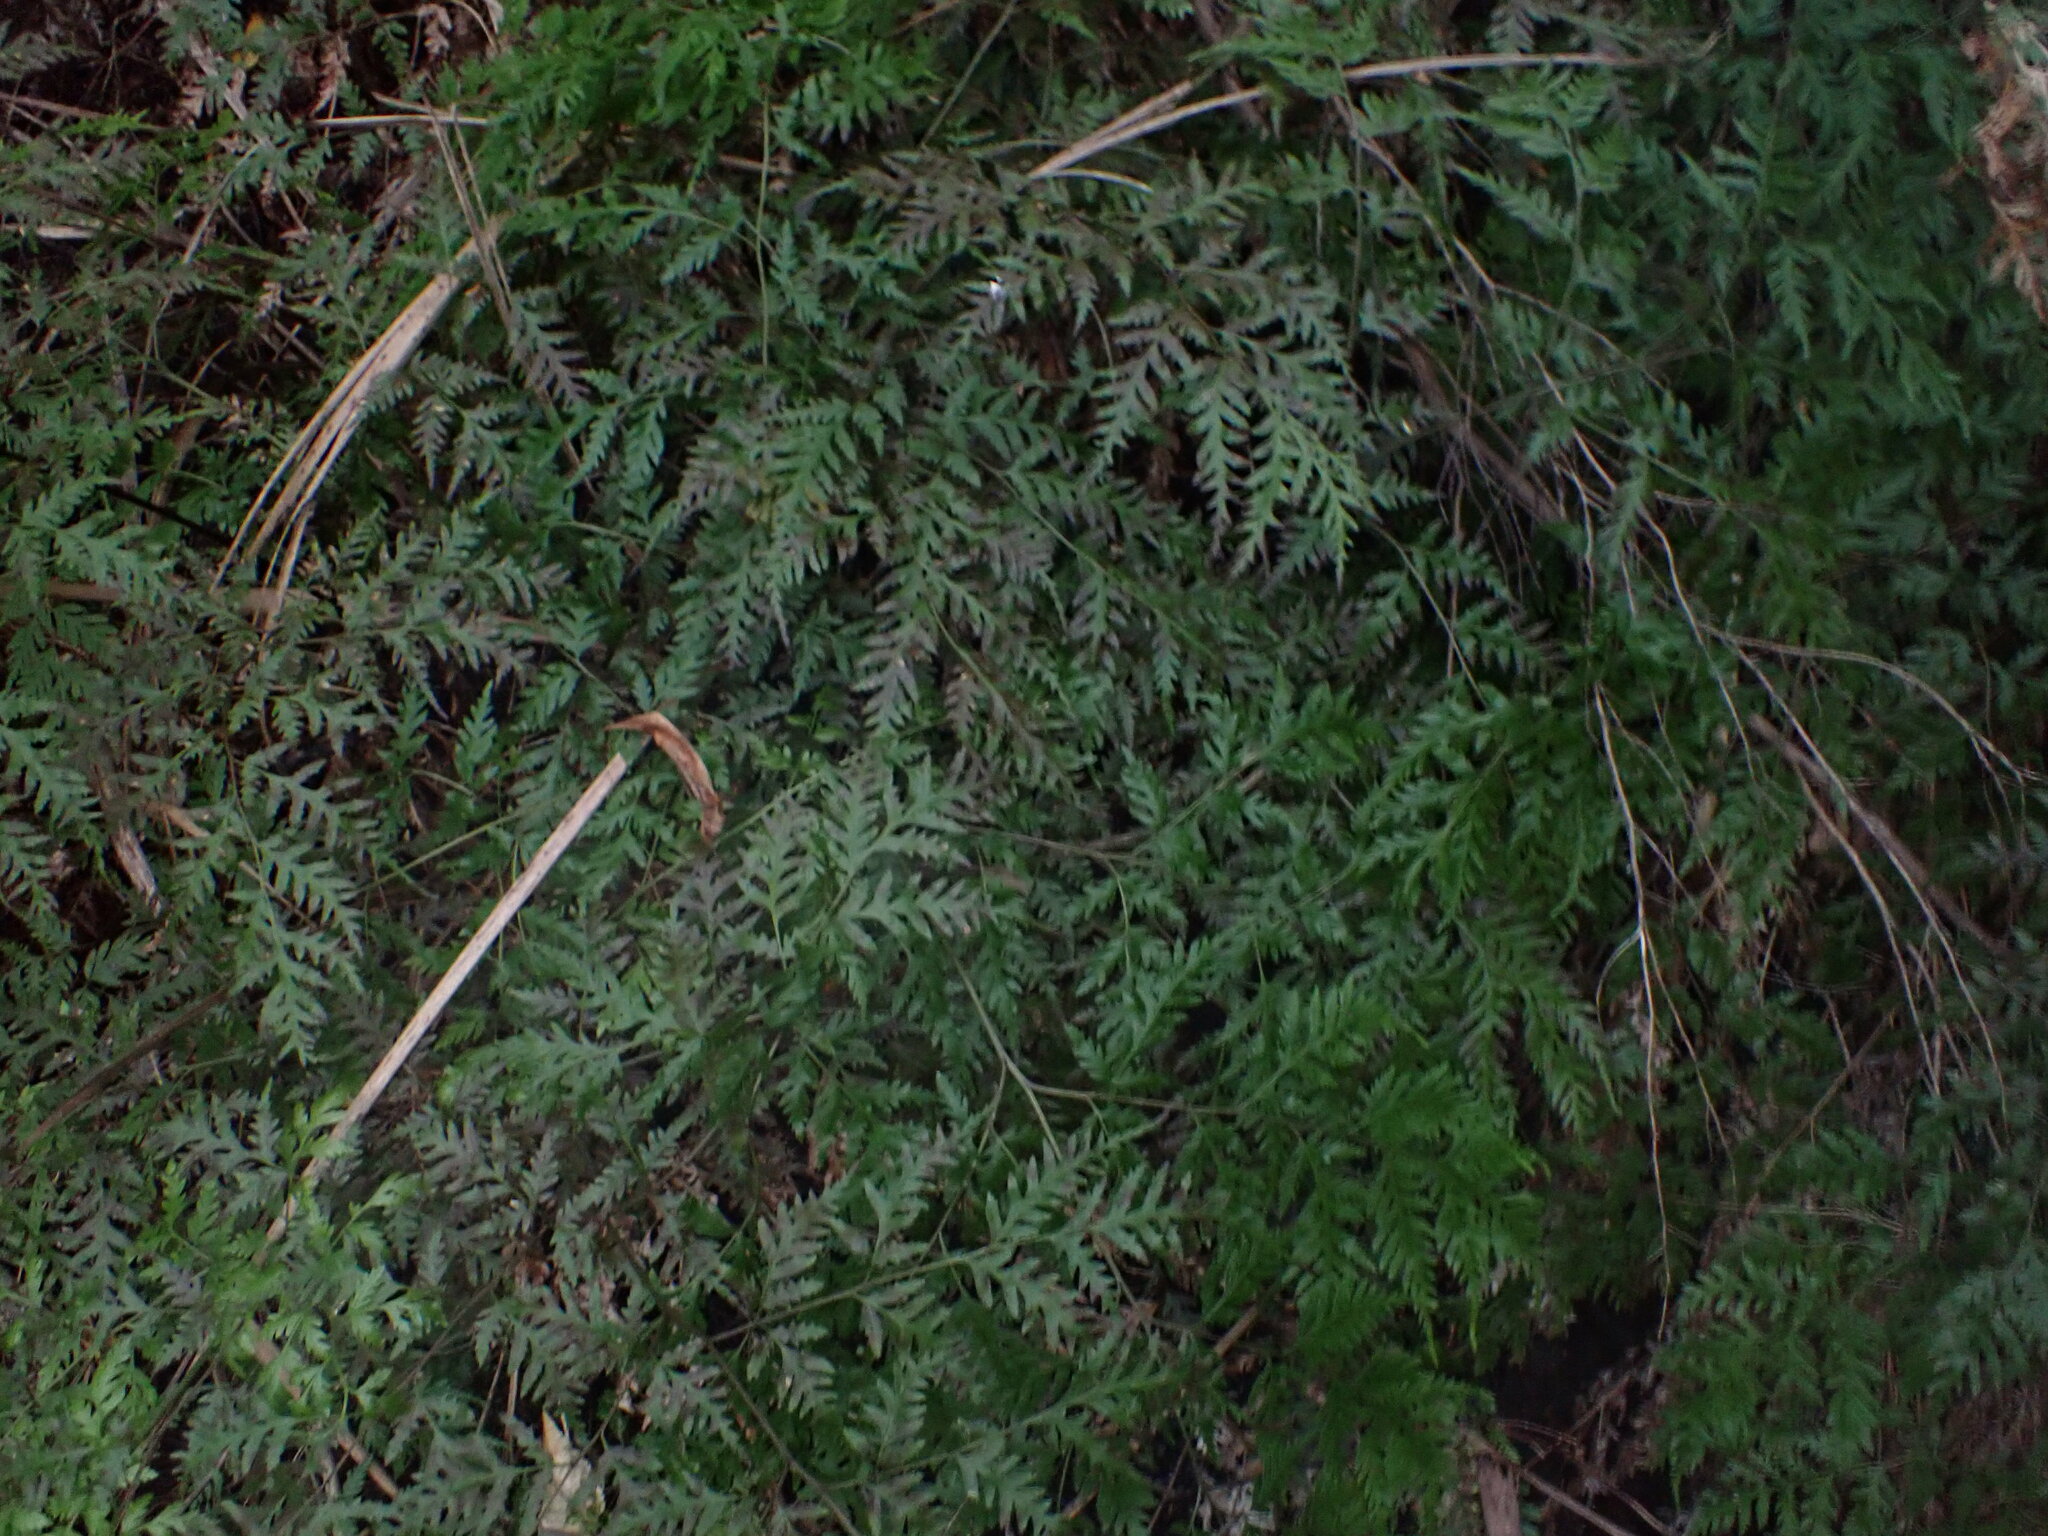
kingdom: Plantae
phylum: Tracheophyta
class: Polypodiopsida
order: Polypodiales
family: Pteridaceae
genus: Pteris
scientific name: Pteris macilenta
